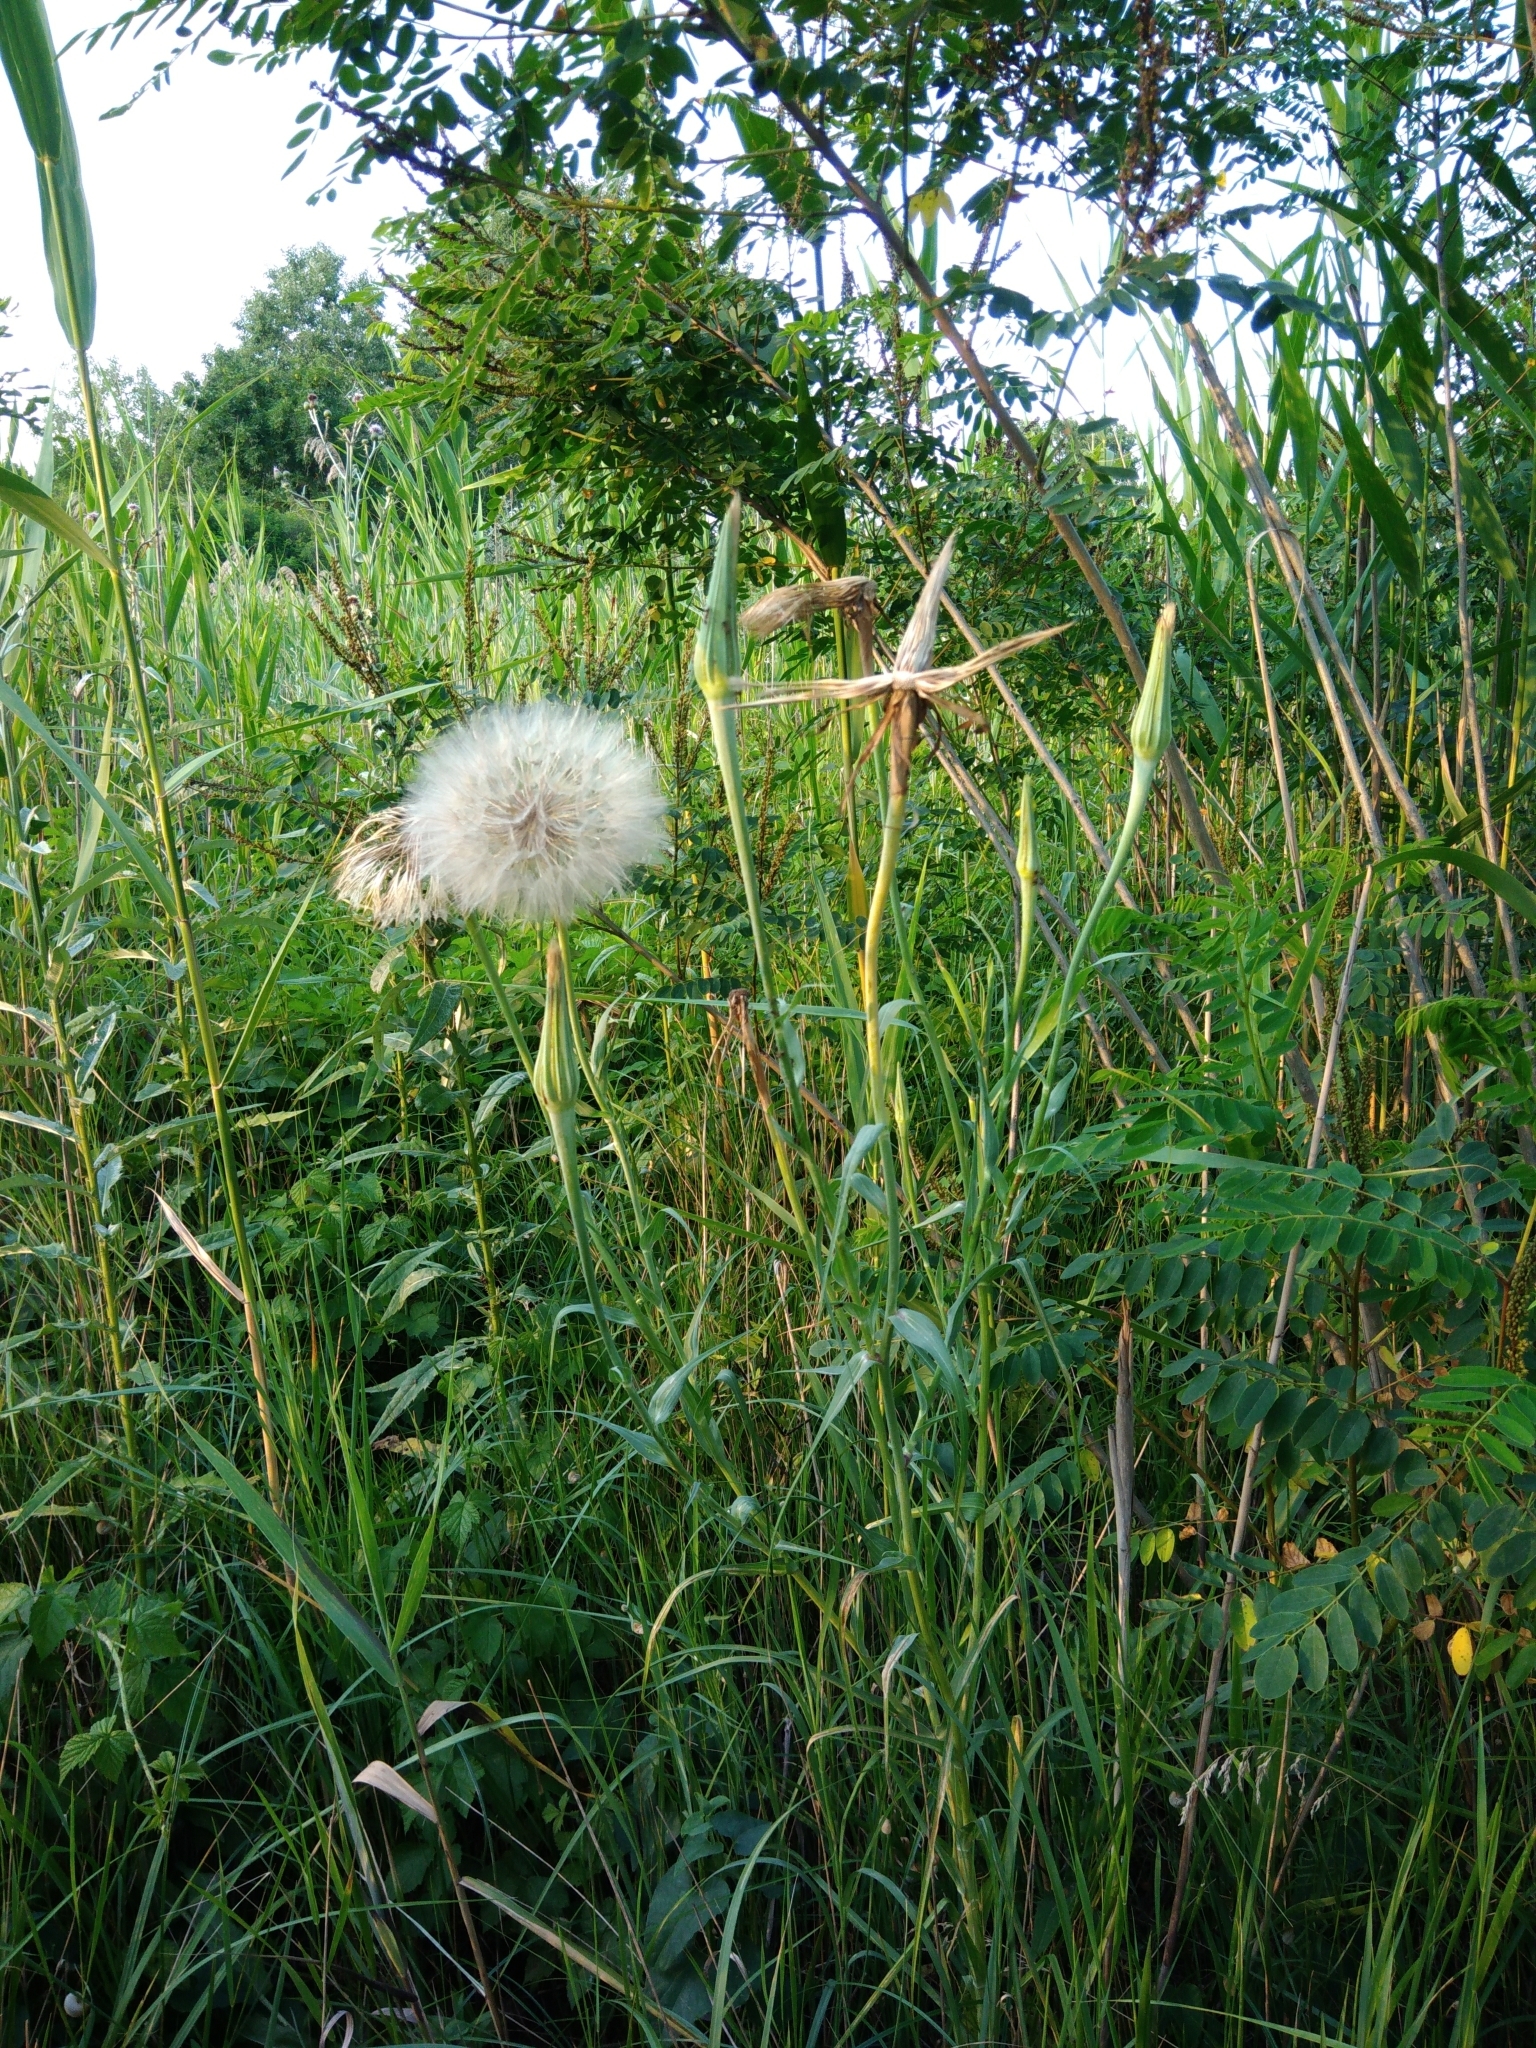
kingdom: Plantae
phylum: Tracheophyta
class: Magnoliopsida
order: Asterales
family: Asteraceae
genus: Tragopogon
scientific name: Tragopogon dubius
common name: Yellow salsify
